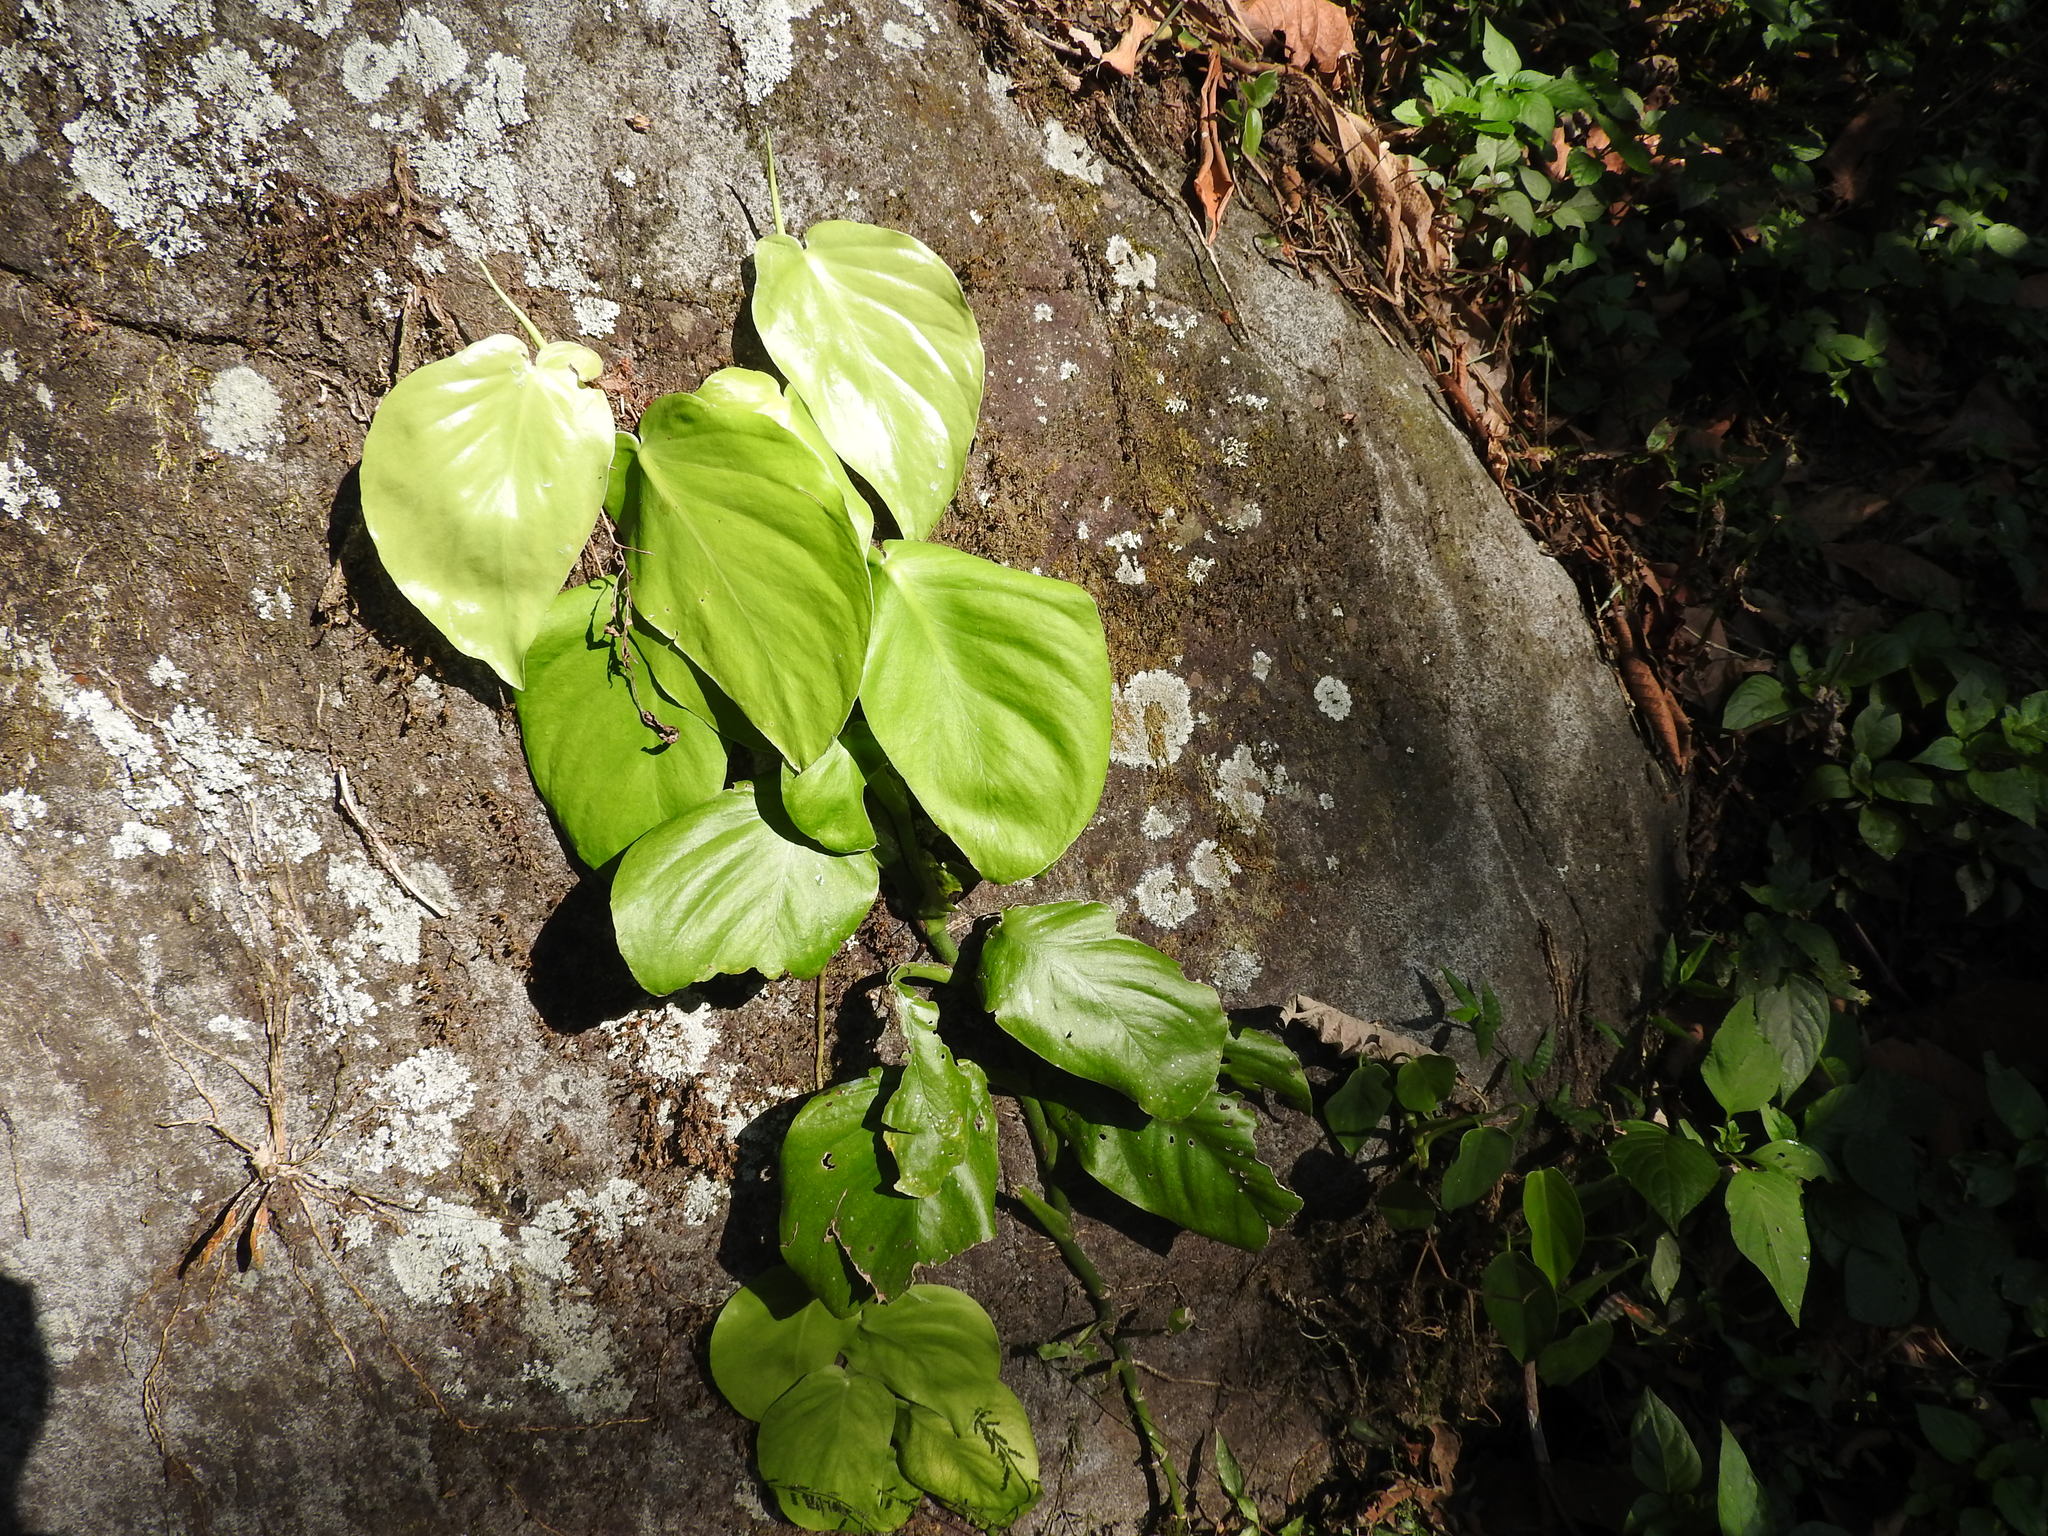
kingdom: Plantae
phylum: Tracheophyta
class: Liliopsida
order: Alismatales
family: Araceae
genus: Monstera
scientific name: Monstera acuminata
